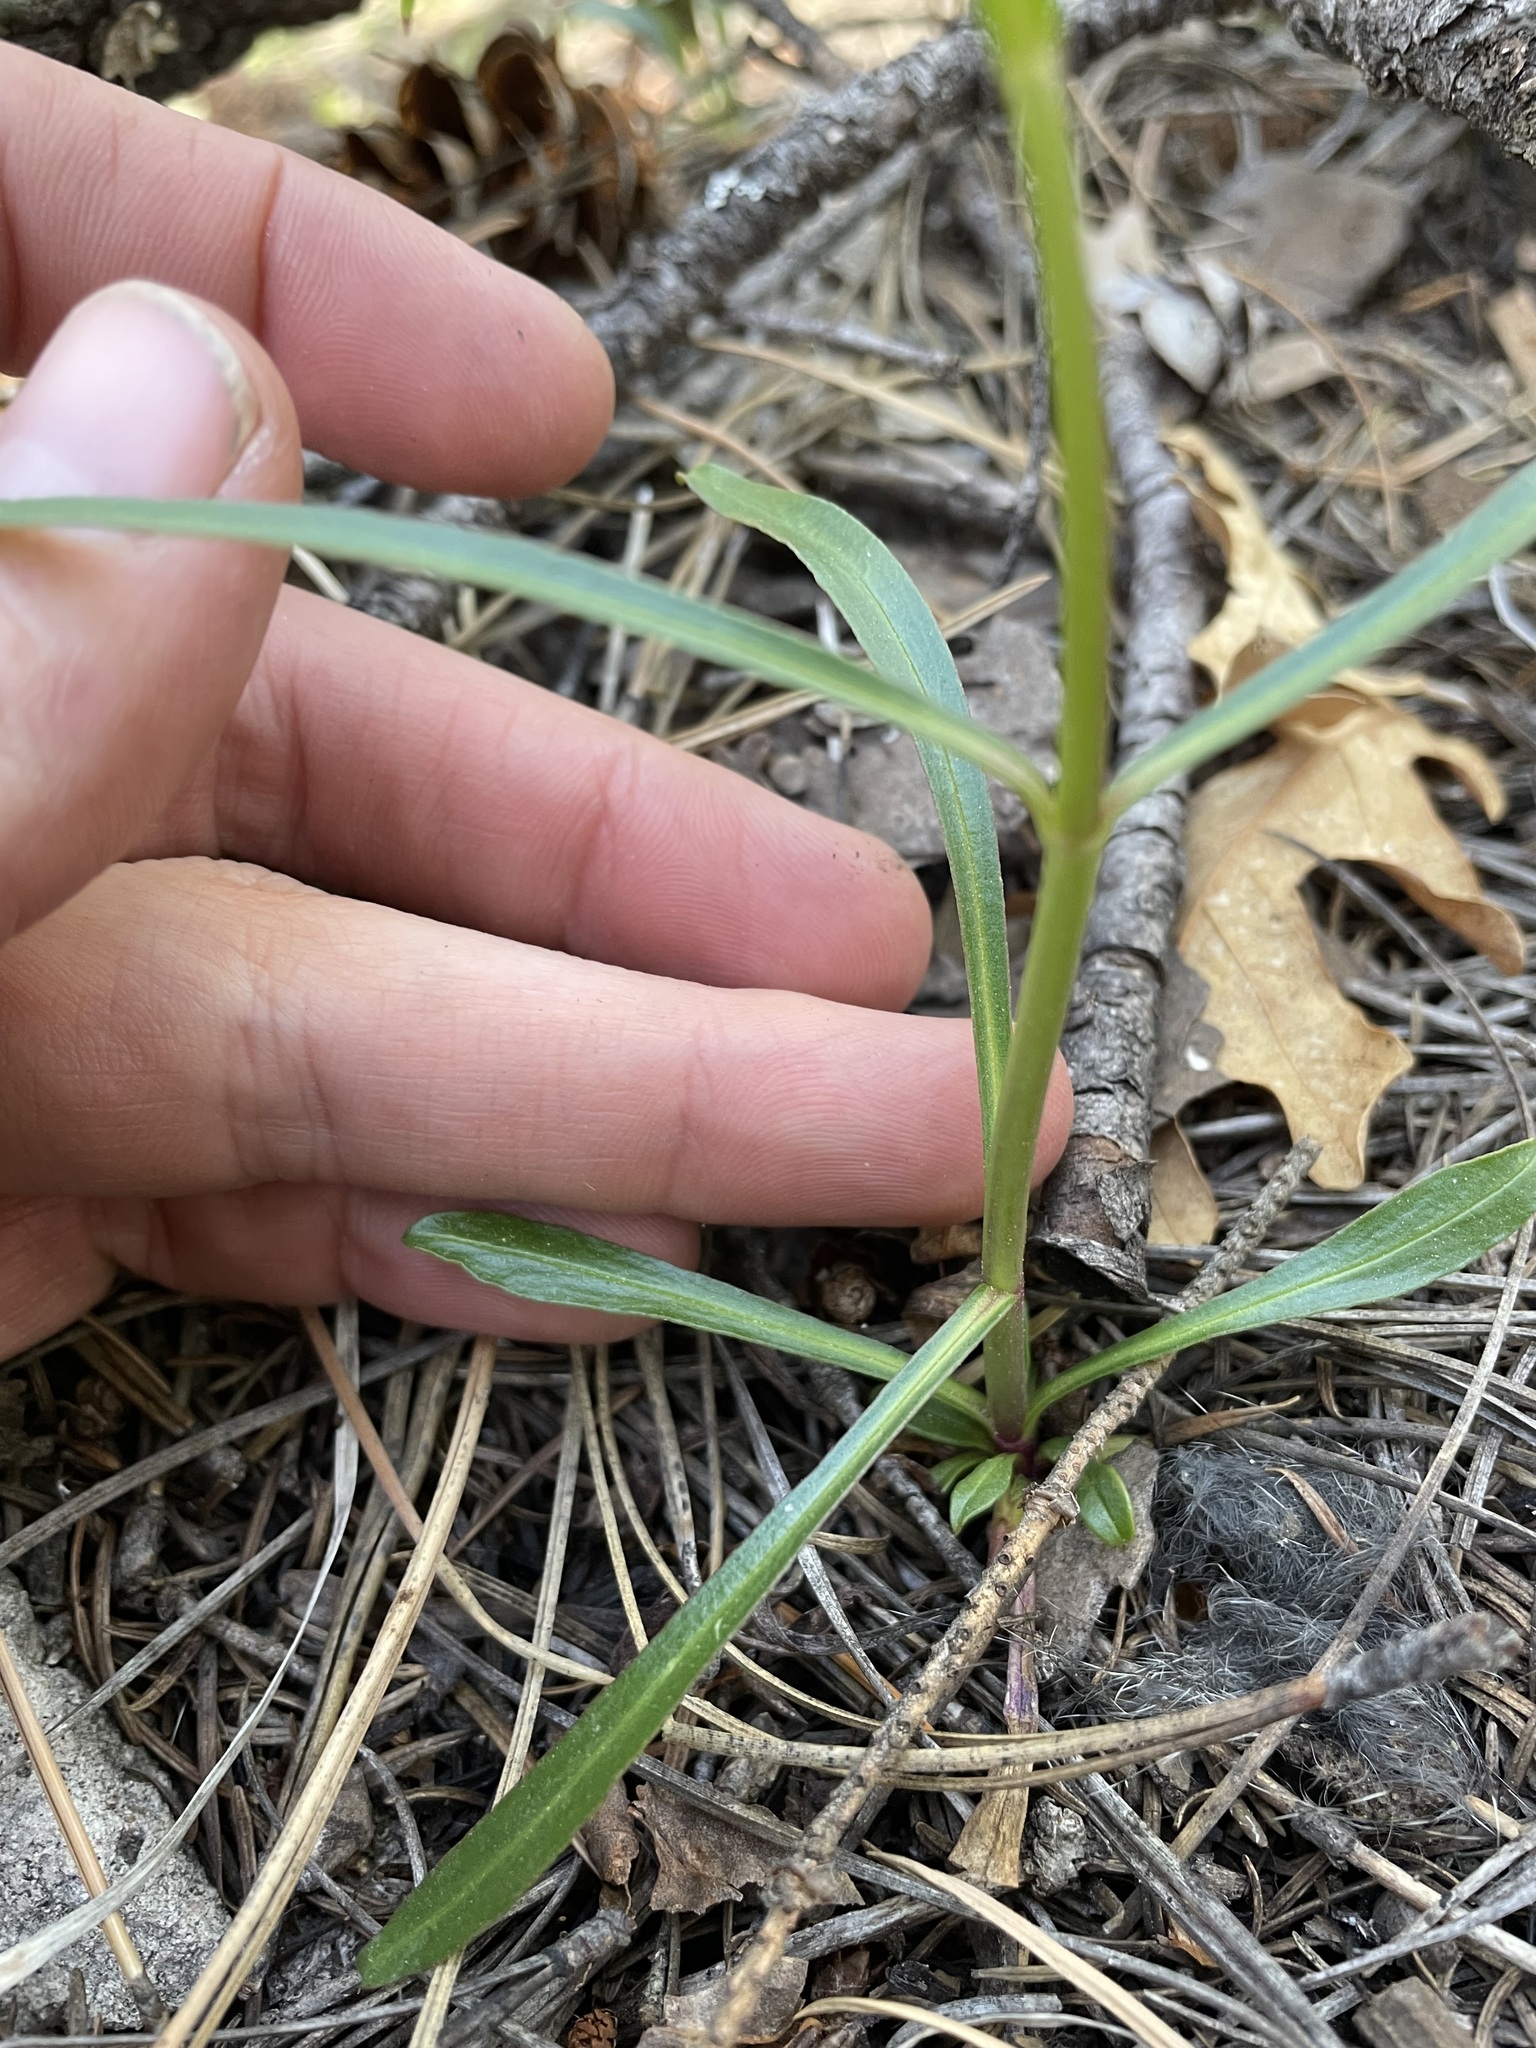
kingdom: Plantae
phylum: Tracheophyta
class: Magnoliopsida
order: Lamiales
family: Plantaginaceae
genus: Penstemon
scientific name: Penstemon barbatus
